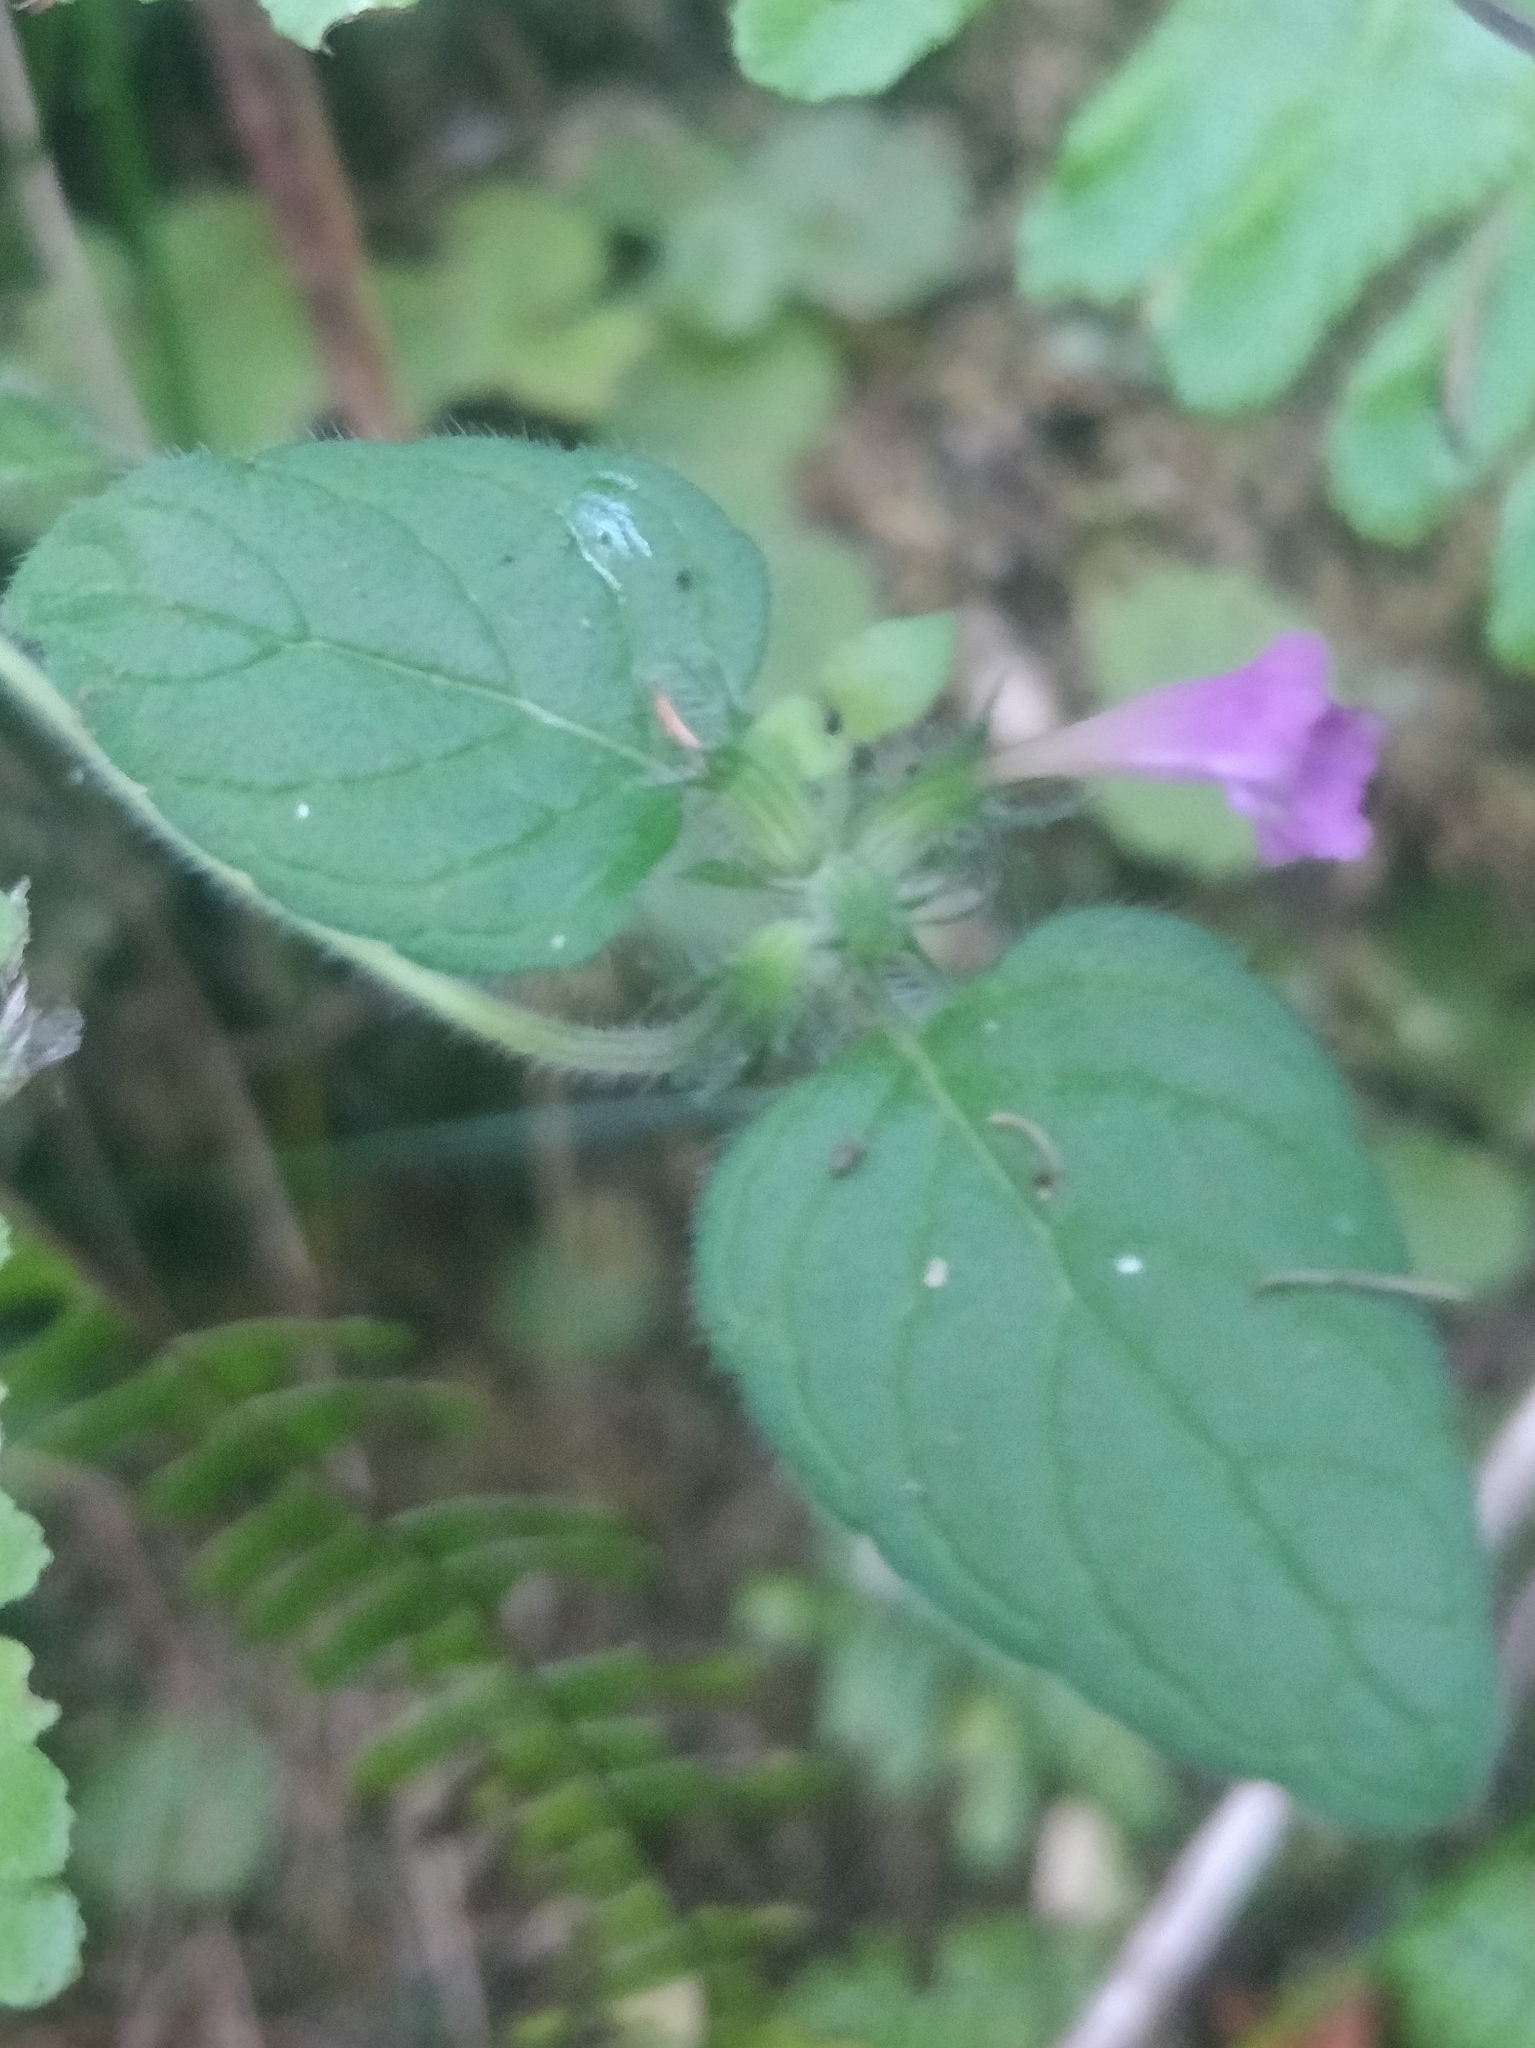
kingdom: Plantae
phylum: Tracheophyta
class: Magnoliopsida
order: Lamiales
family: Lamiaceae
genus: Clinopodium
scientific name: Clinopodium vulgare
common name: Wild basil
